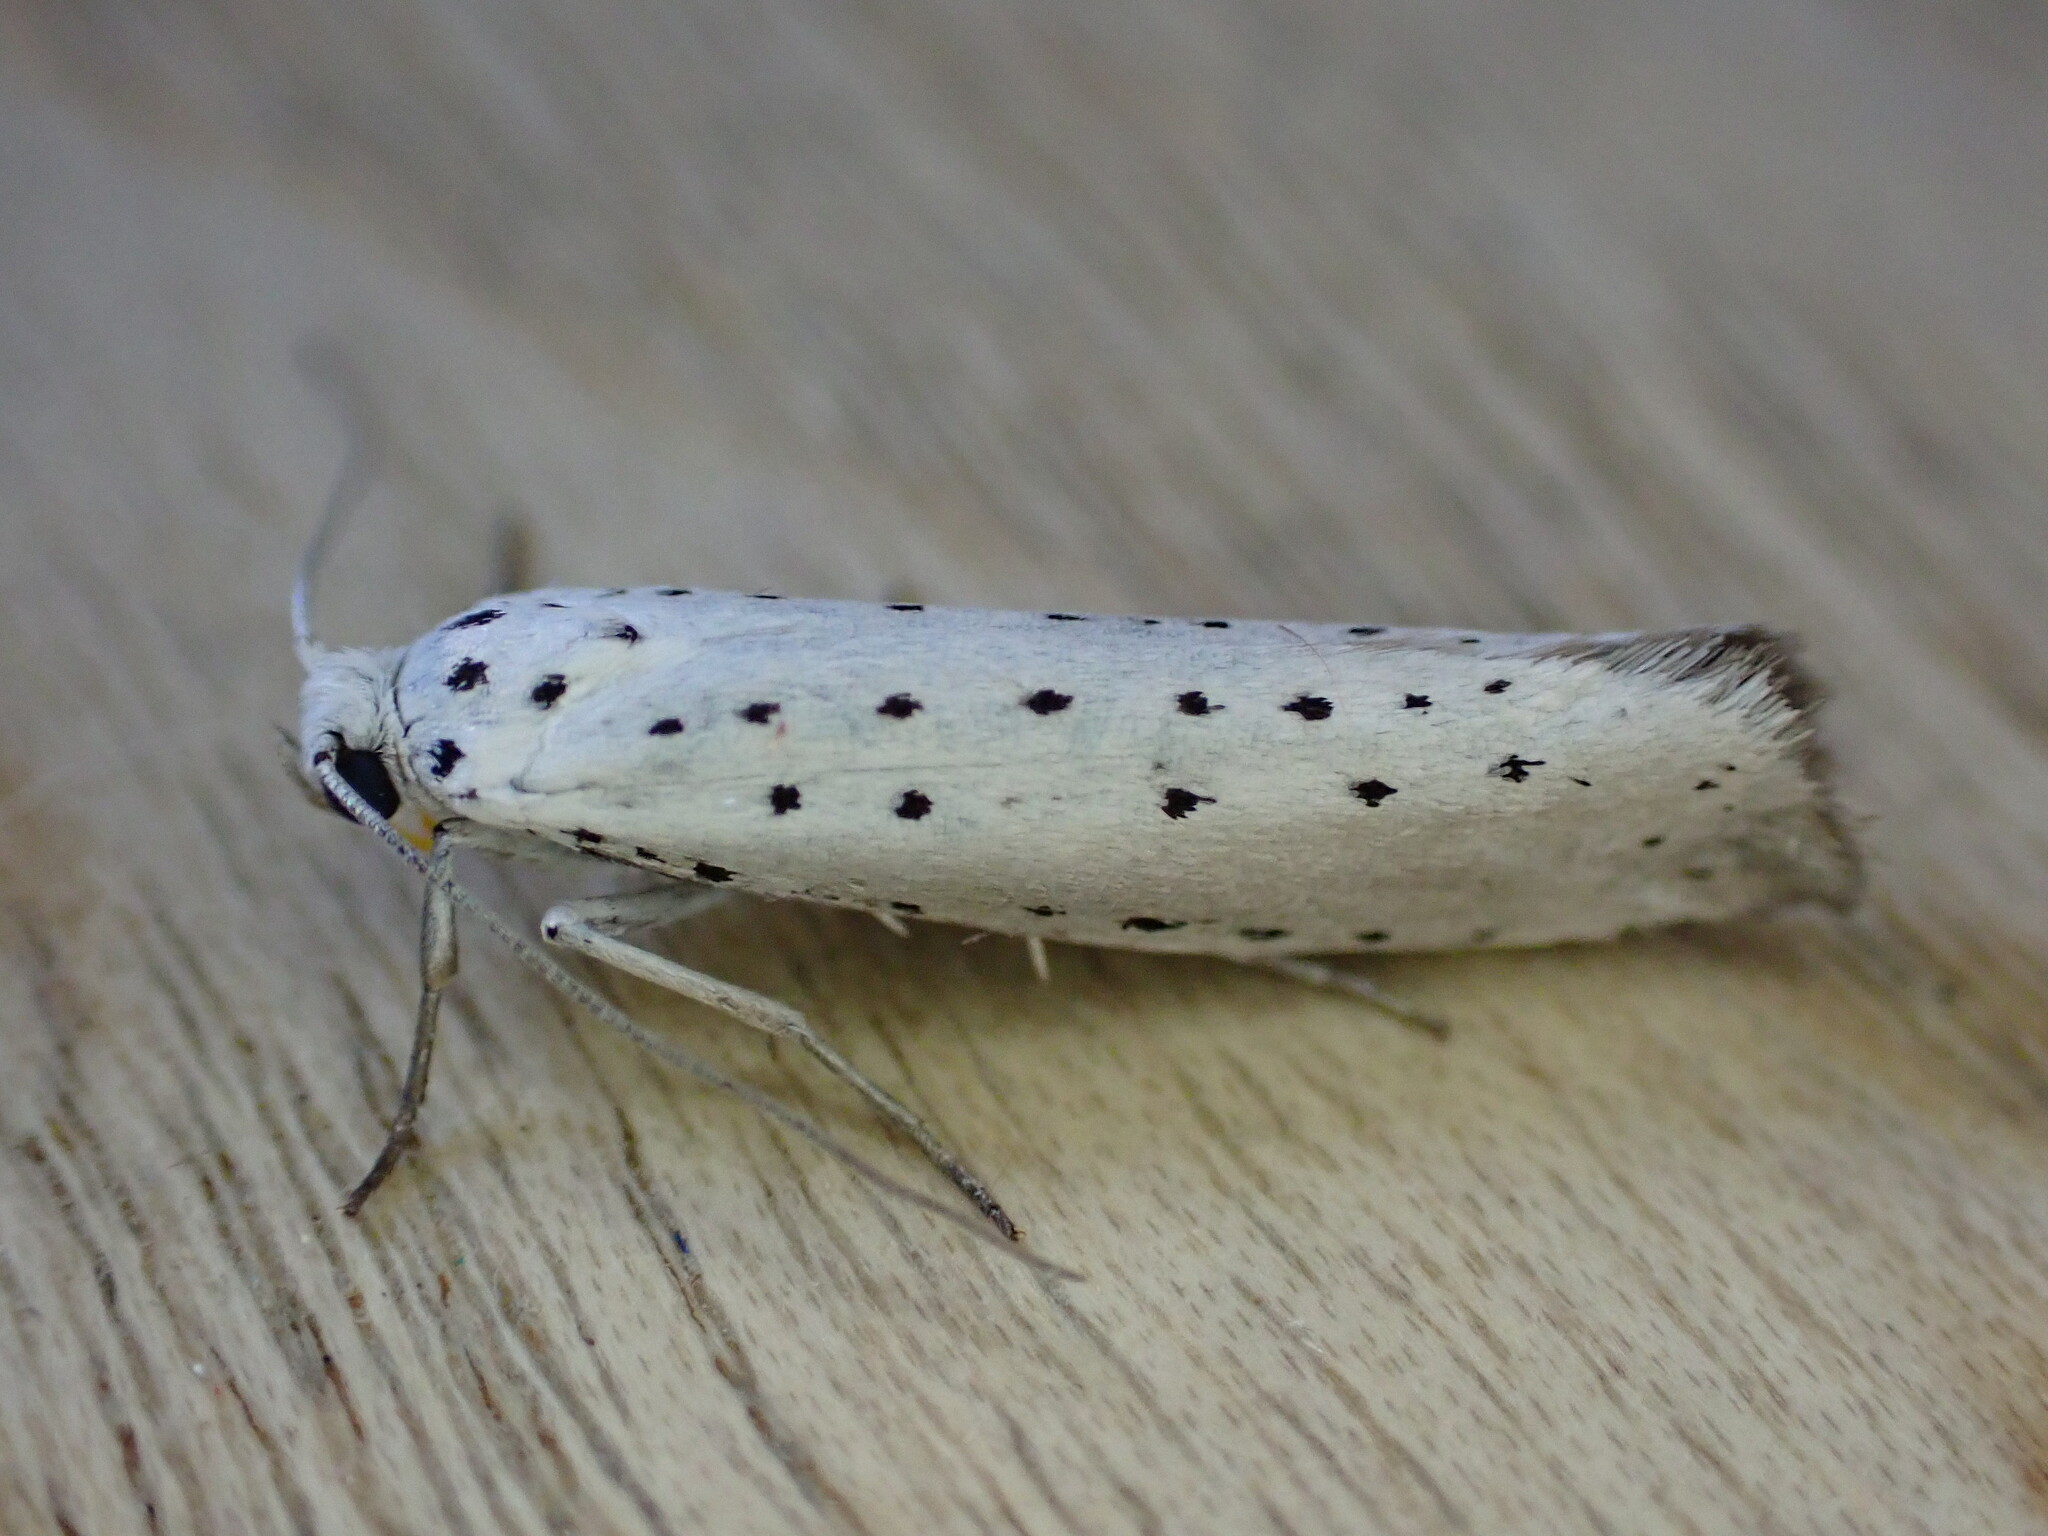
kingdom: Animalia
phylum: Arthropoda
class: Insecta
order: Lepidoptera
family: Yponomeutidae
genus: Yponomeuta
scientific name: Yponomeuta
